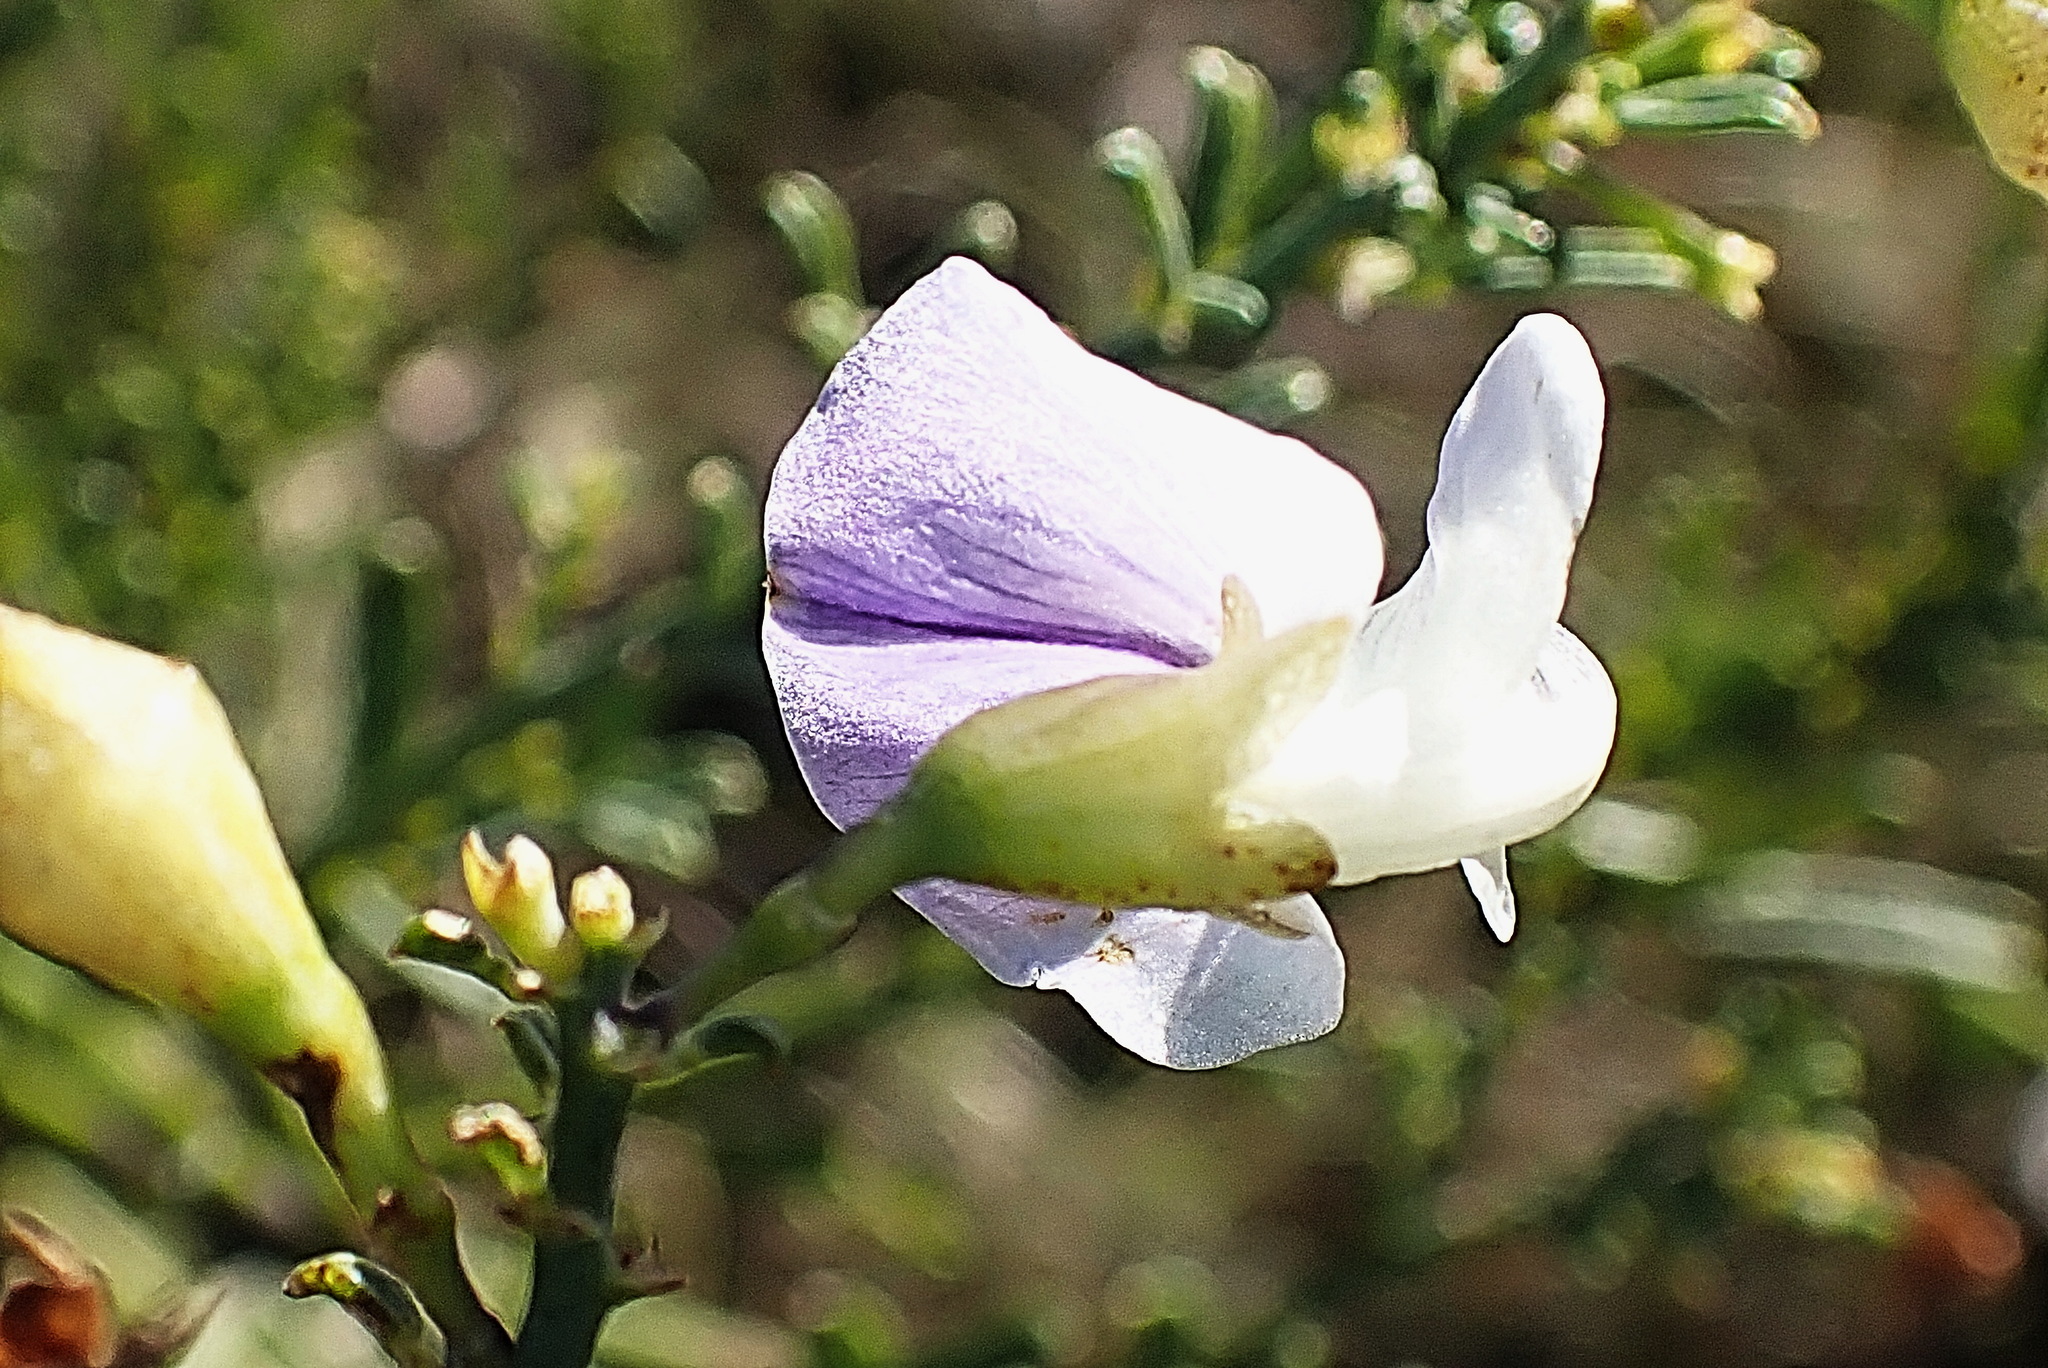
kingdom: Plantae
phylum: Tracheophyta
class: Magnoliopsida
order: Fabales
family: Fabaceae
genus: Psoralea
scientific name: Psoralea axillaris
